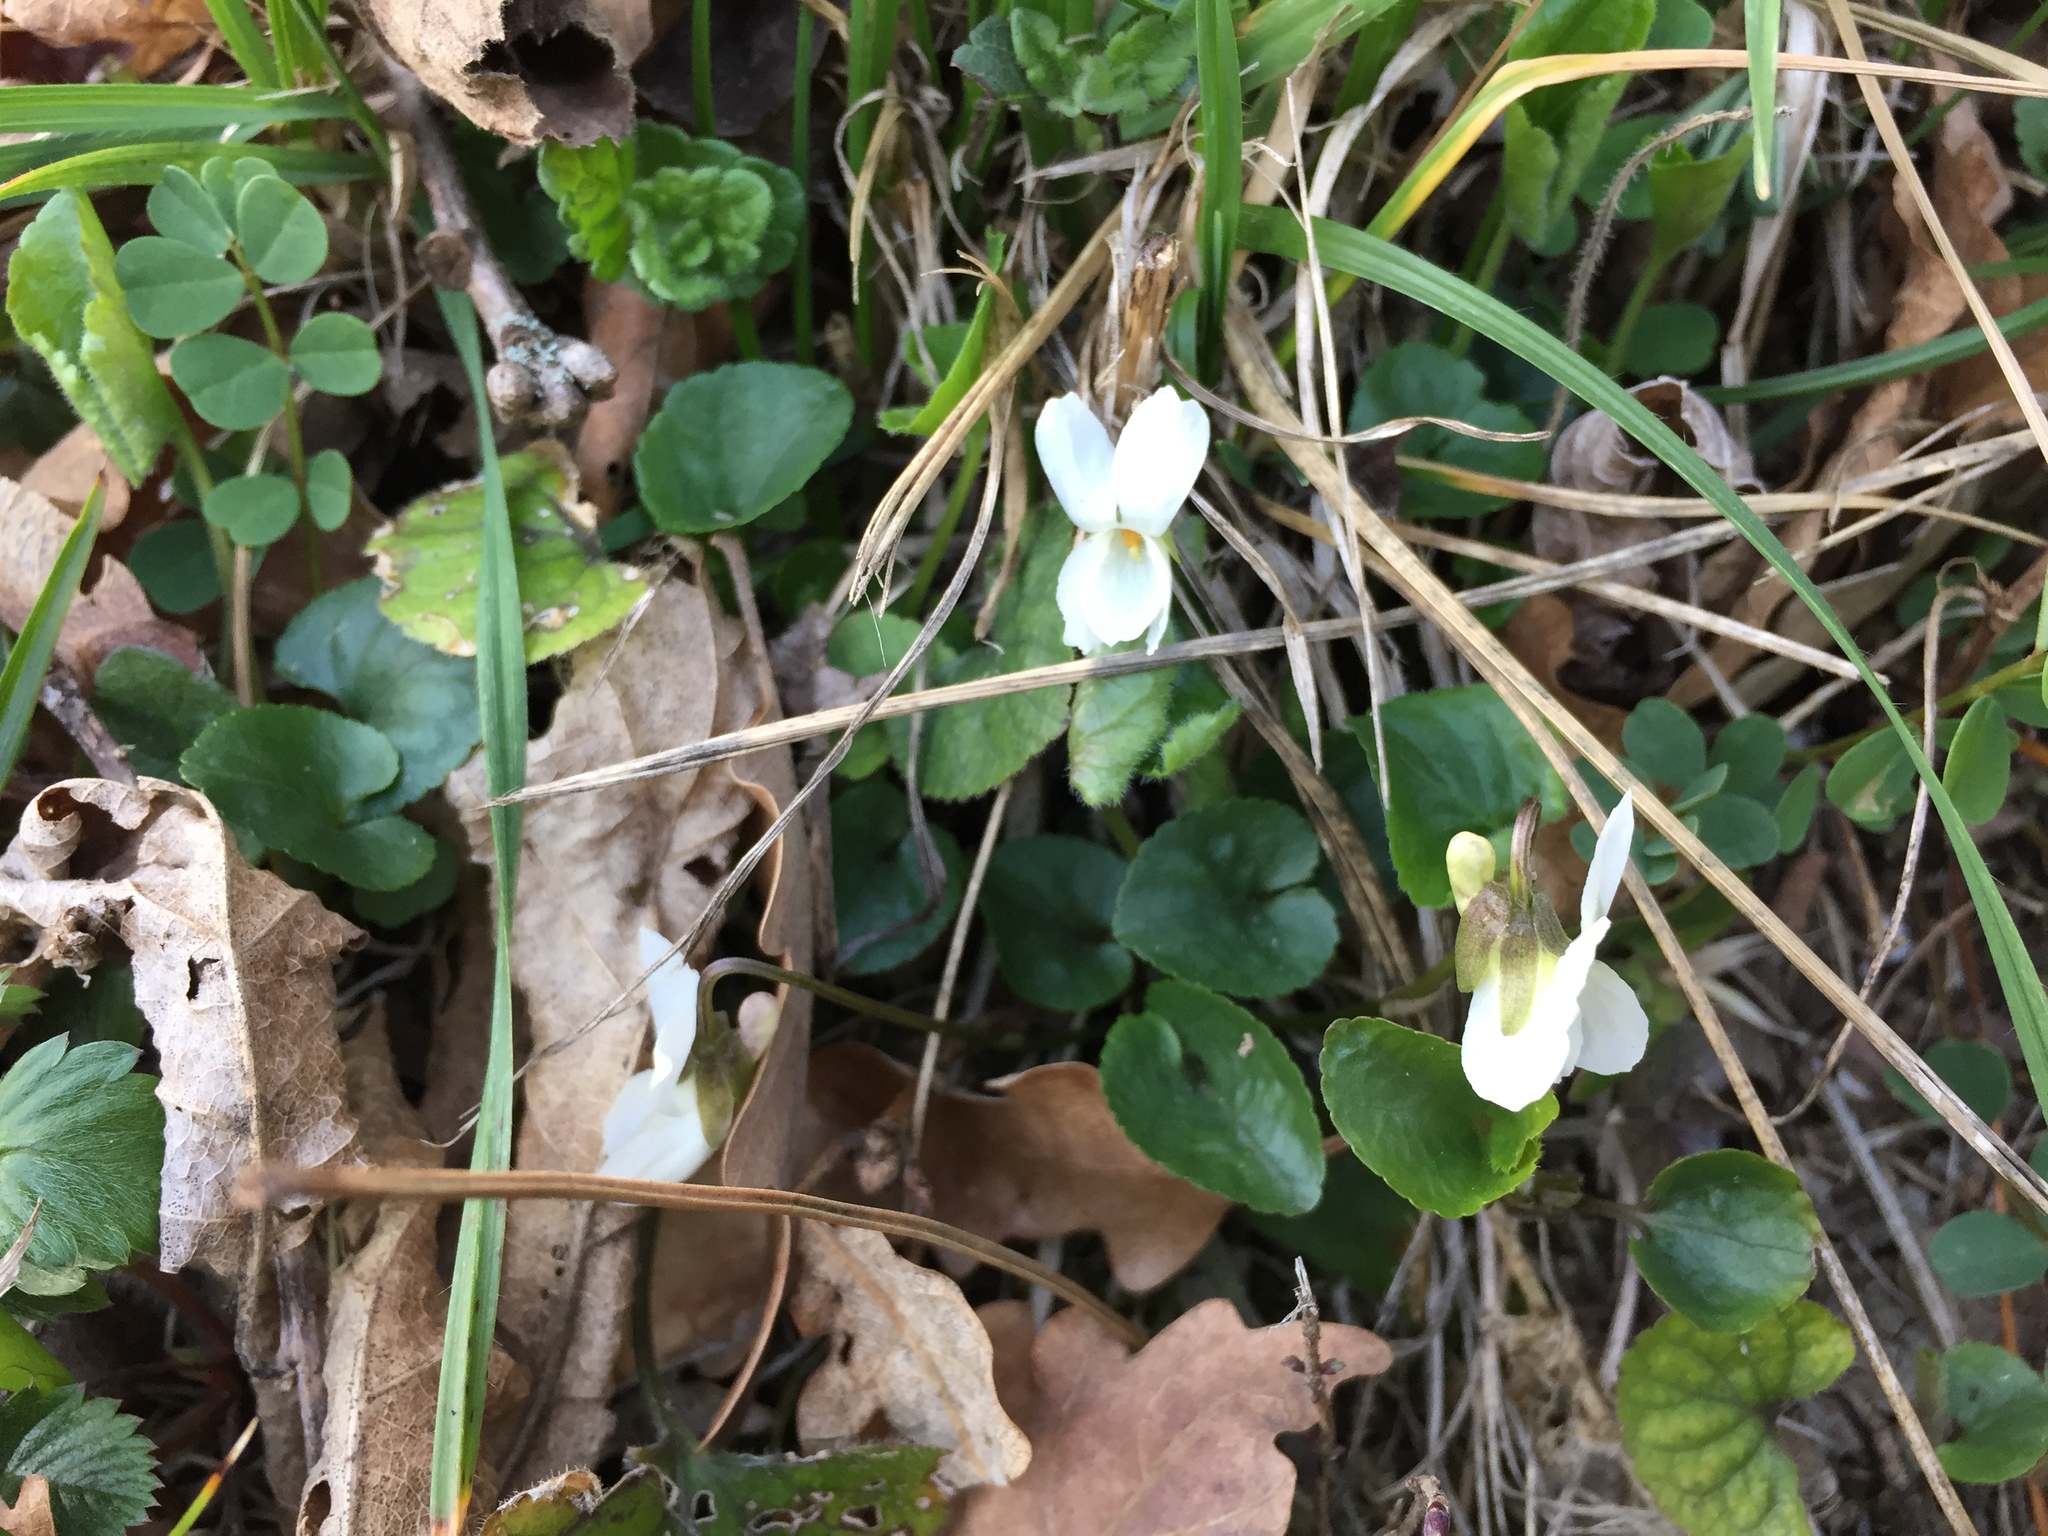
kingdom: Plantae
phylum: Tracheophyta
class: Magnoliopsida
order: Malpighiales
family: Violaceae
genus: Viola
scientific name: Viola alba
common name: White violet
